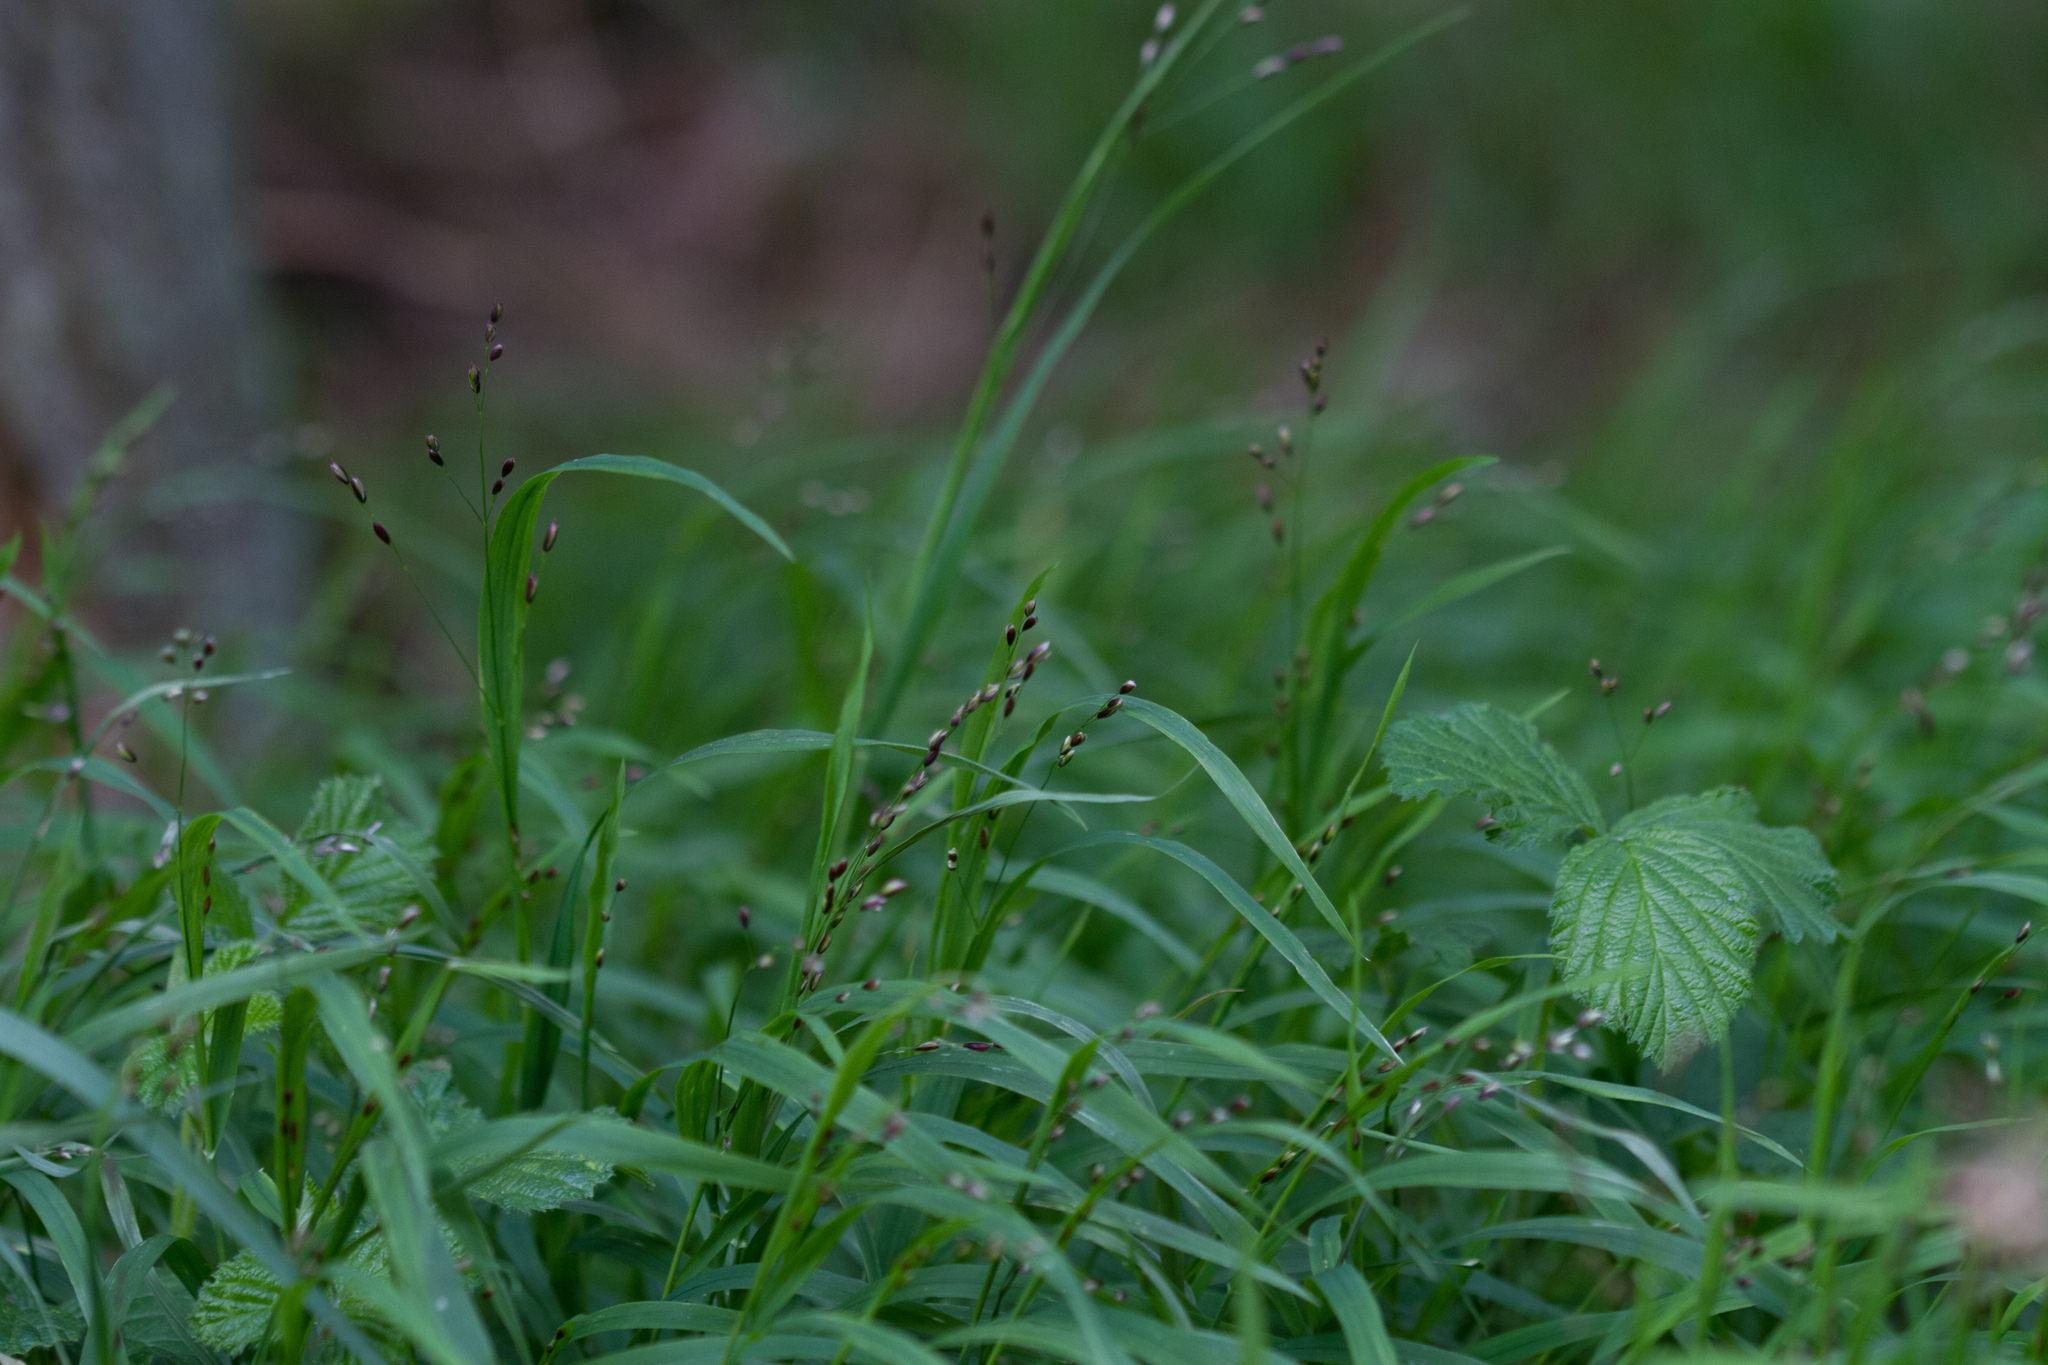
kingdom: Plantae
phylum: Tracheophyta
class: Liliopsida
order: Poales
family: Poaceae
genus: Melica
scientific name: Melica uniflora
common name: Wood melick
